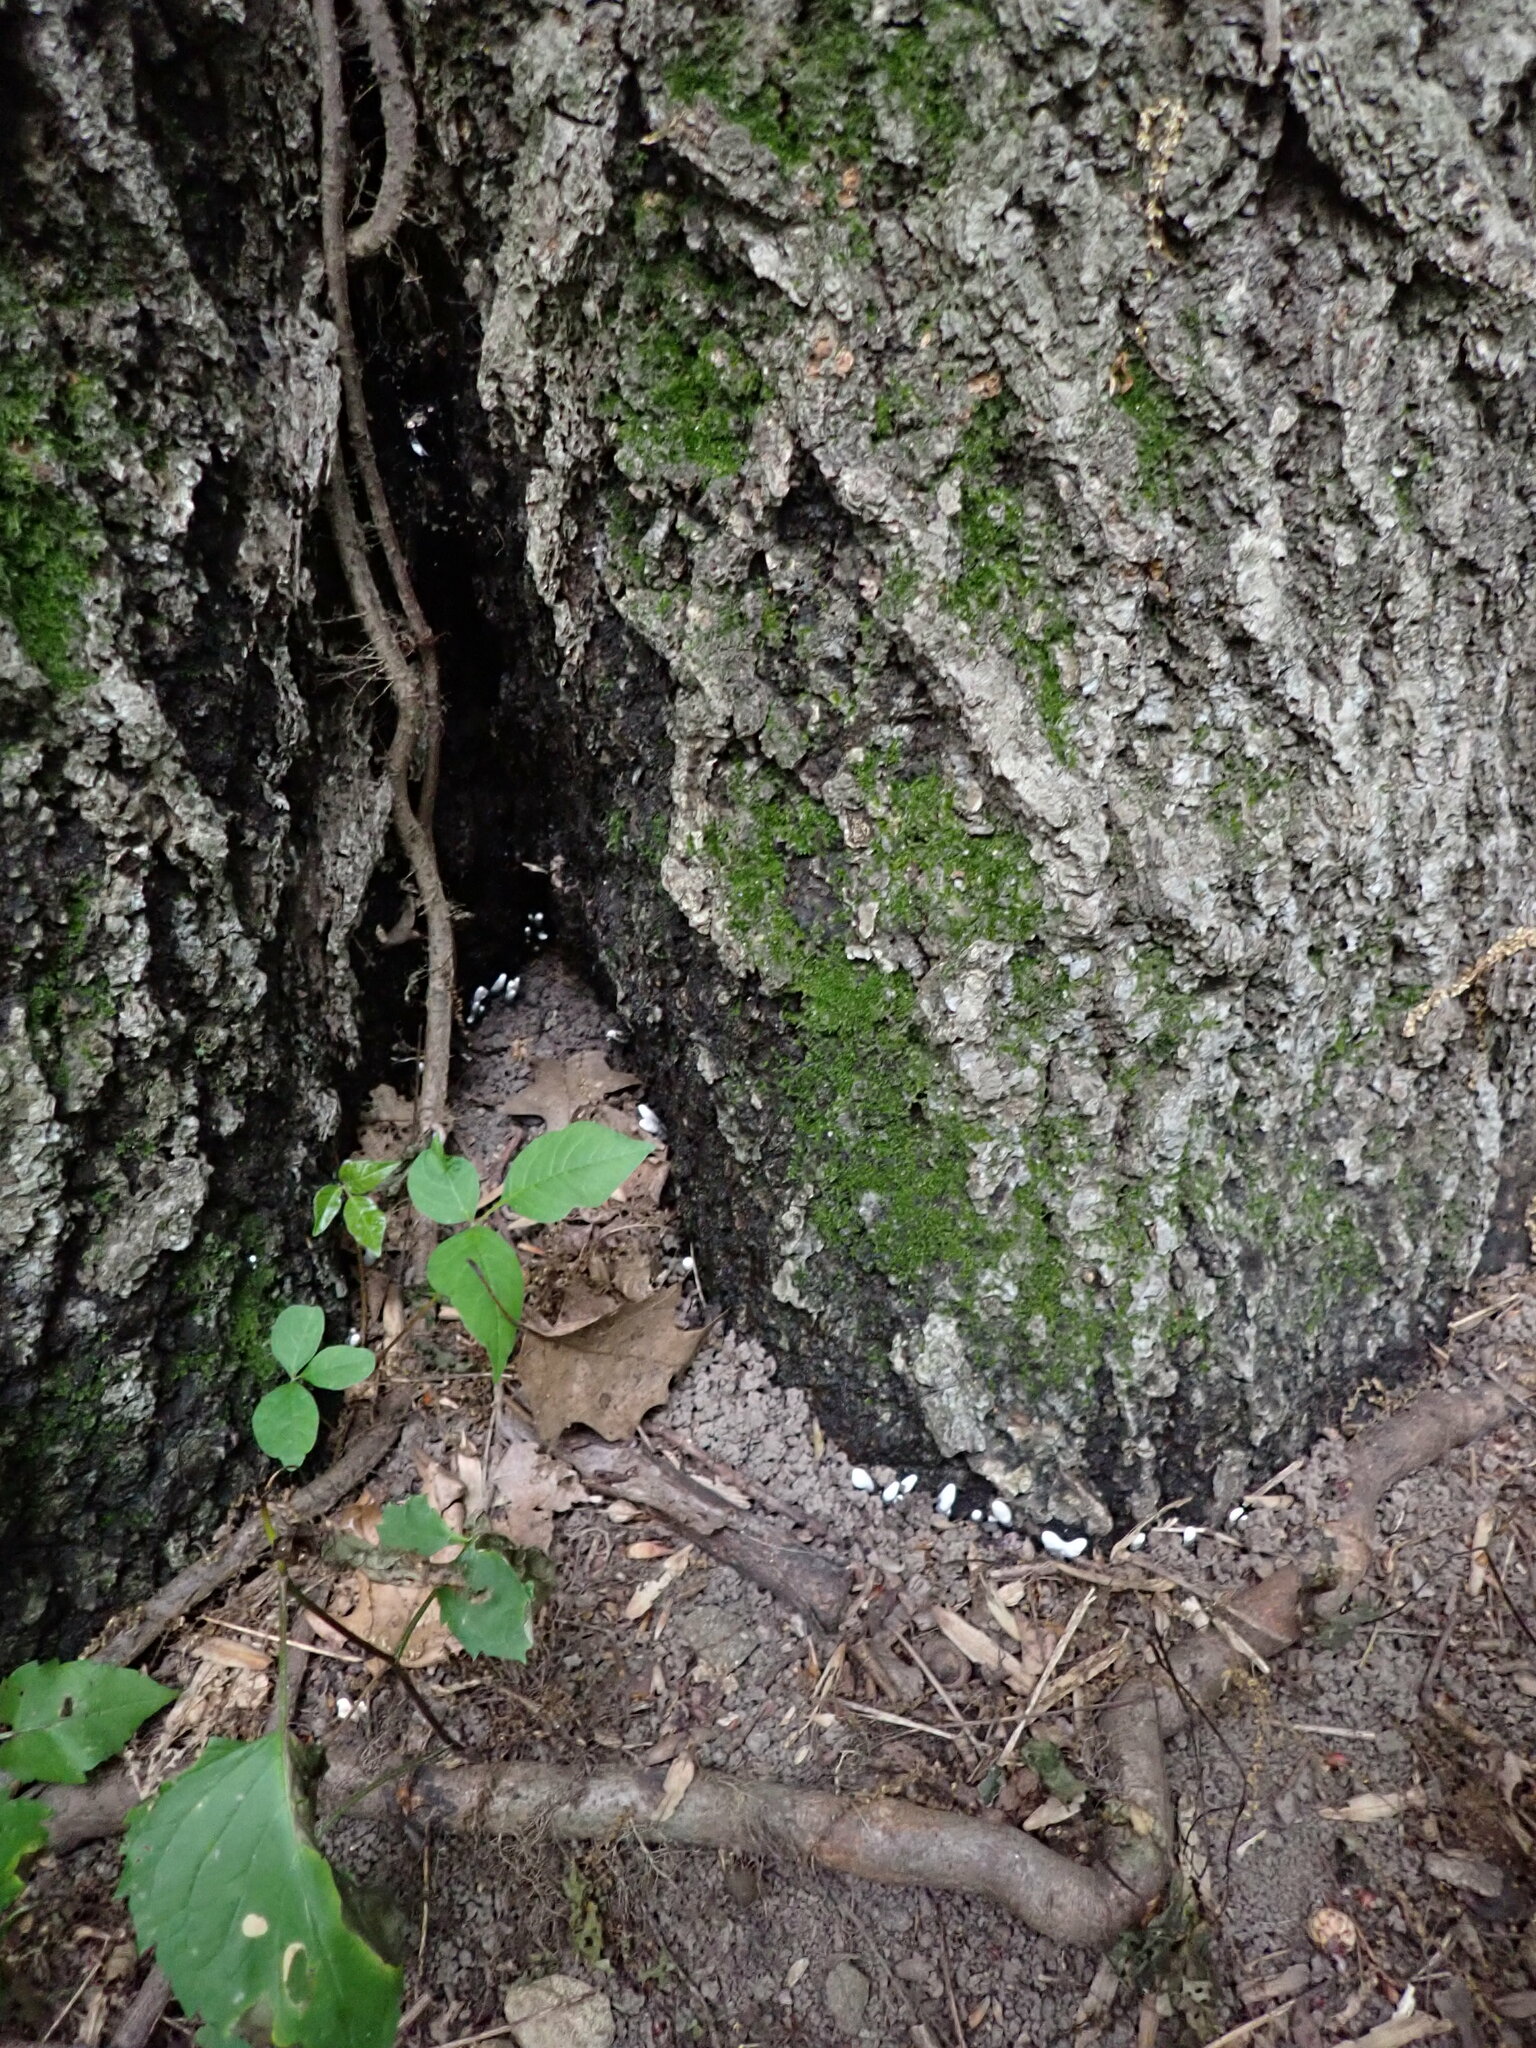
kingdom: Fungi
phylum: Ascomycota
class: Sordariomycetes
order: Xylariales
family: Xylariaceae
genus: Xylaria
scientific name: Xylaria polymorpha
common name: Dead man's fingers
